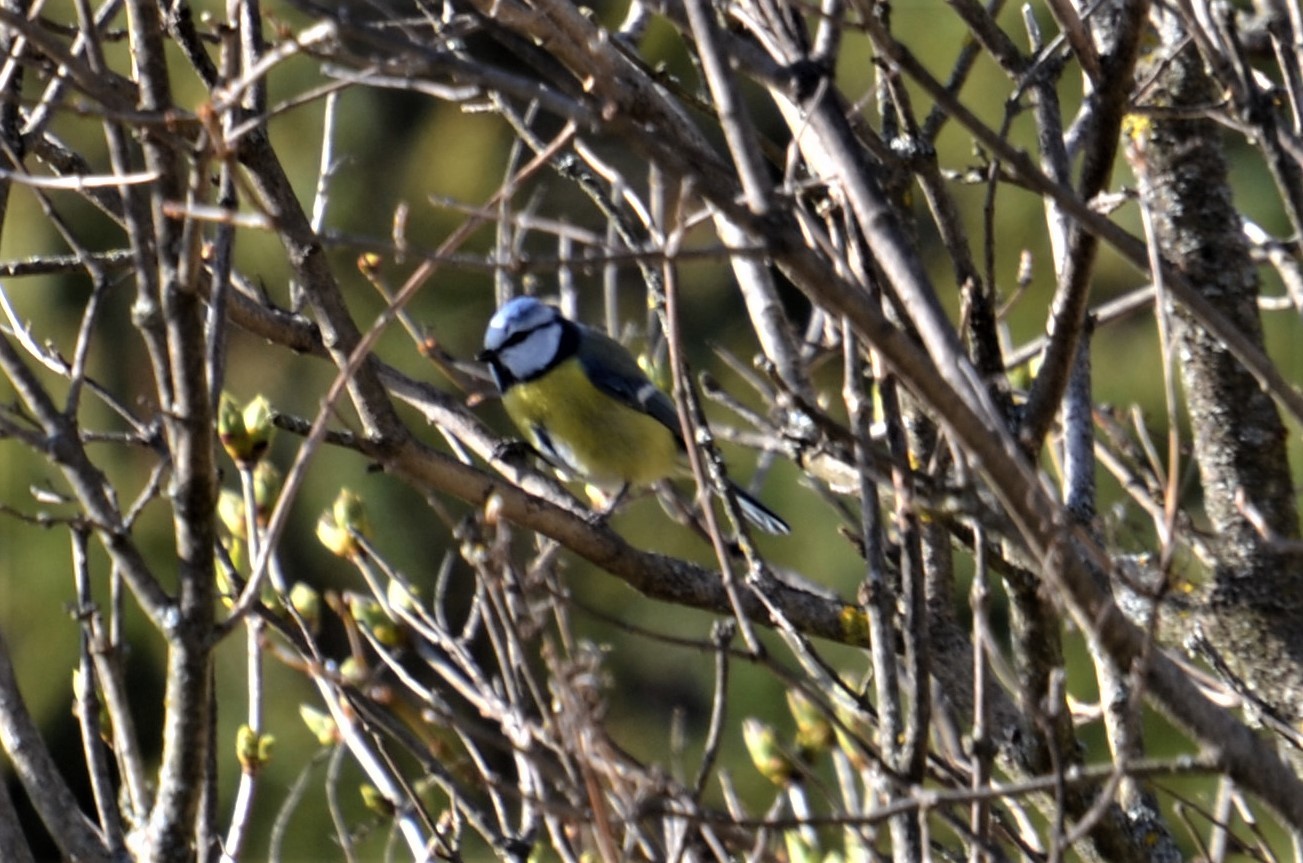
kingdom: Animalia
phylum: Chordata
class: Aves
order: Passeriformes
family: Paridae
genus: Cyanistes
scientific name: Cyanistes caeruleus
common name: Eurasian blue tit
